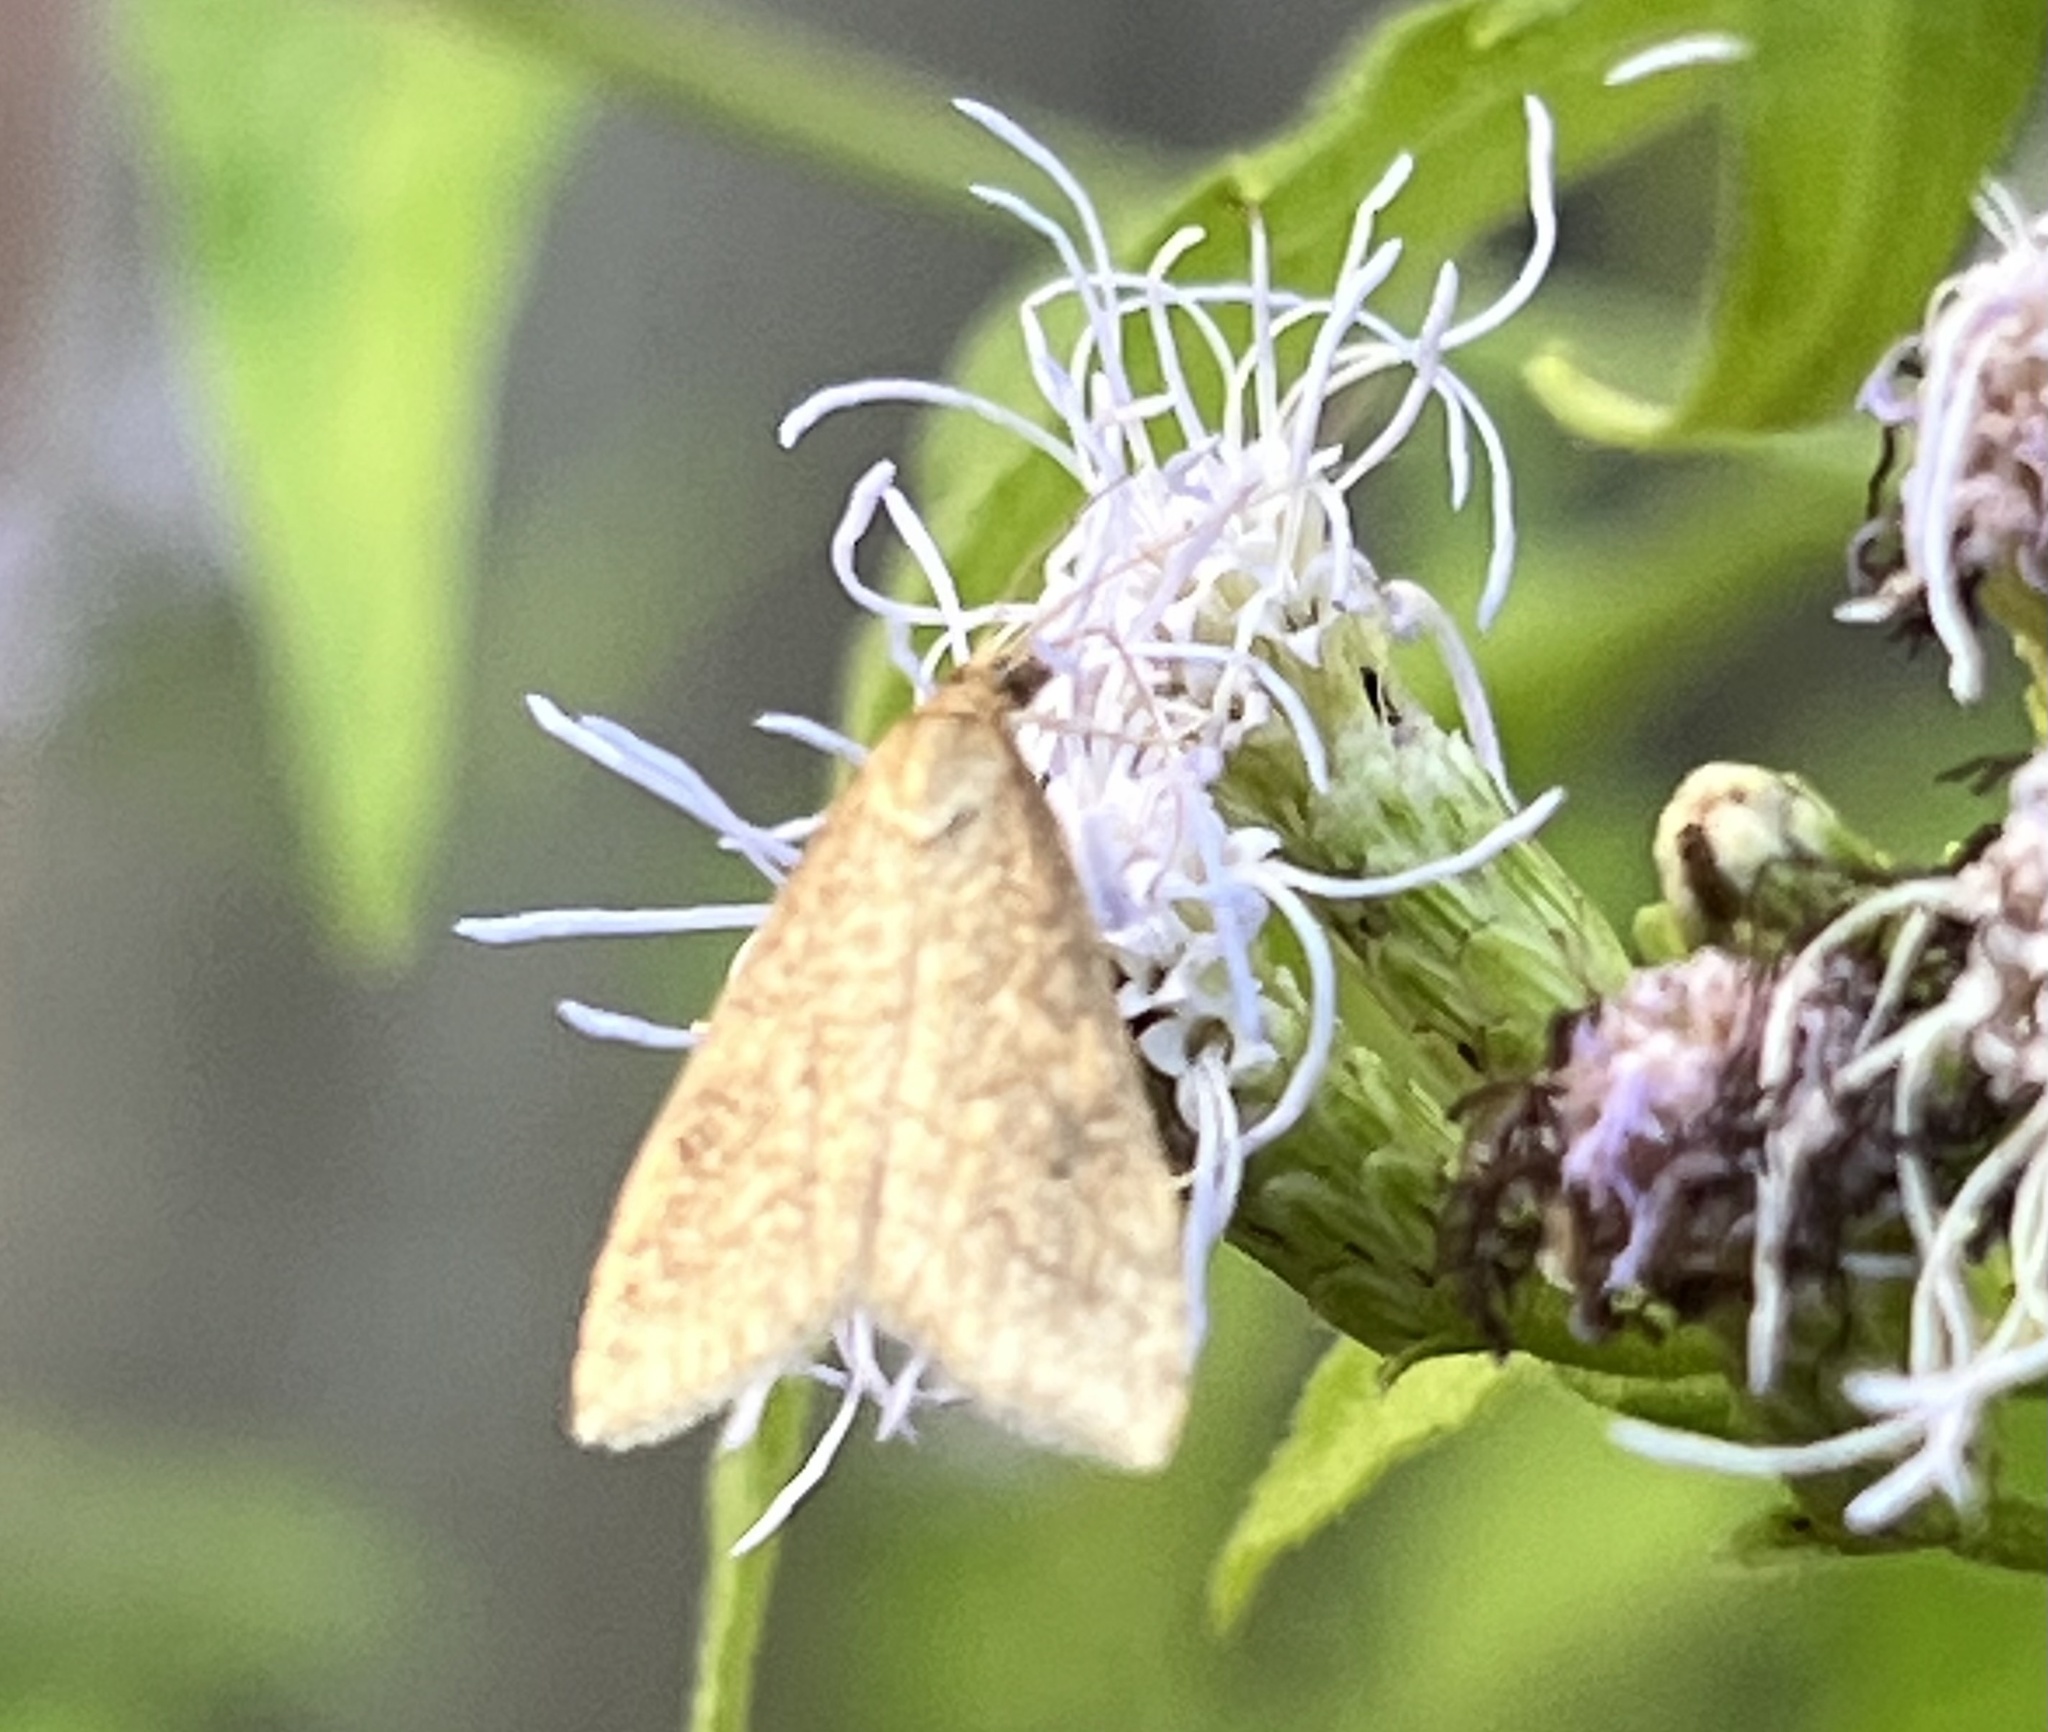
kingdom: Animalia
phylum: Arthropoda
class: Insecta
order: Lepidoptera
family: Crambidae
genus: Udea
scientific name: Udea rubigalis
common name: Celery leaftier moth
